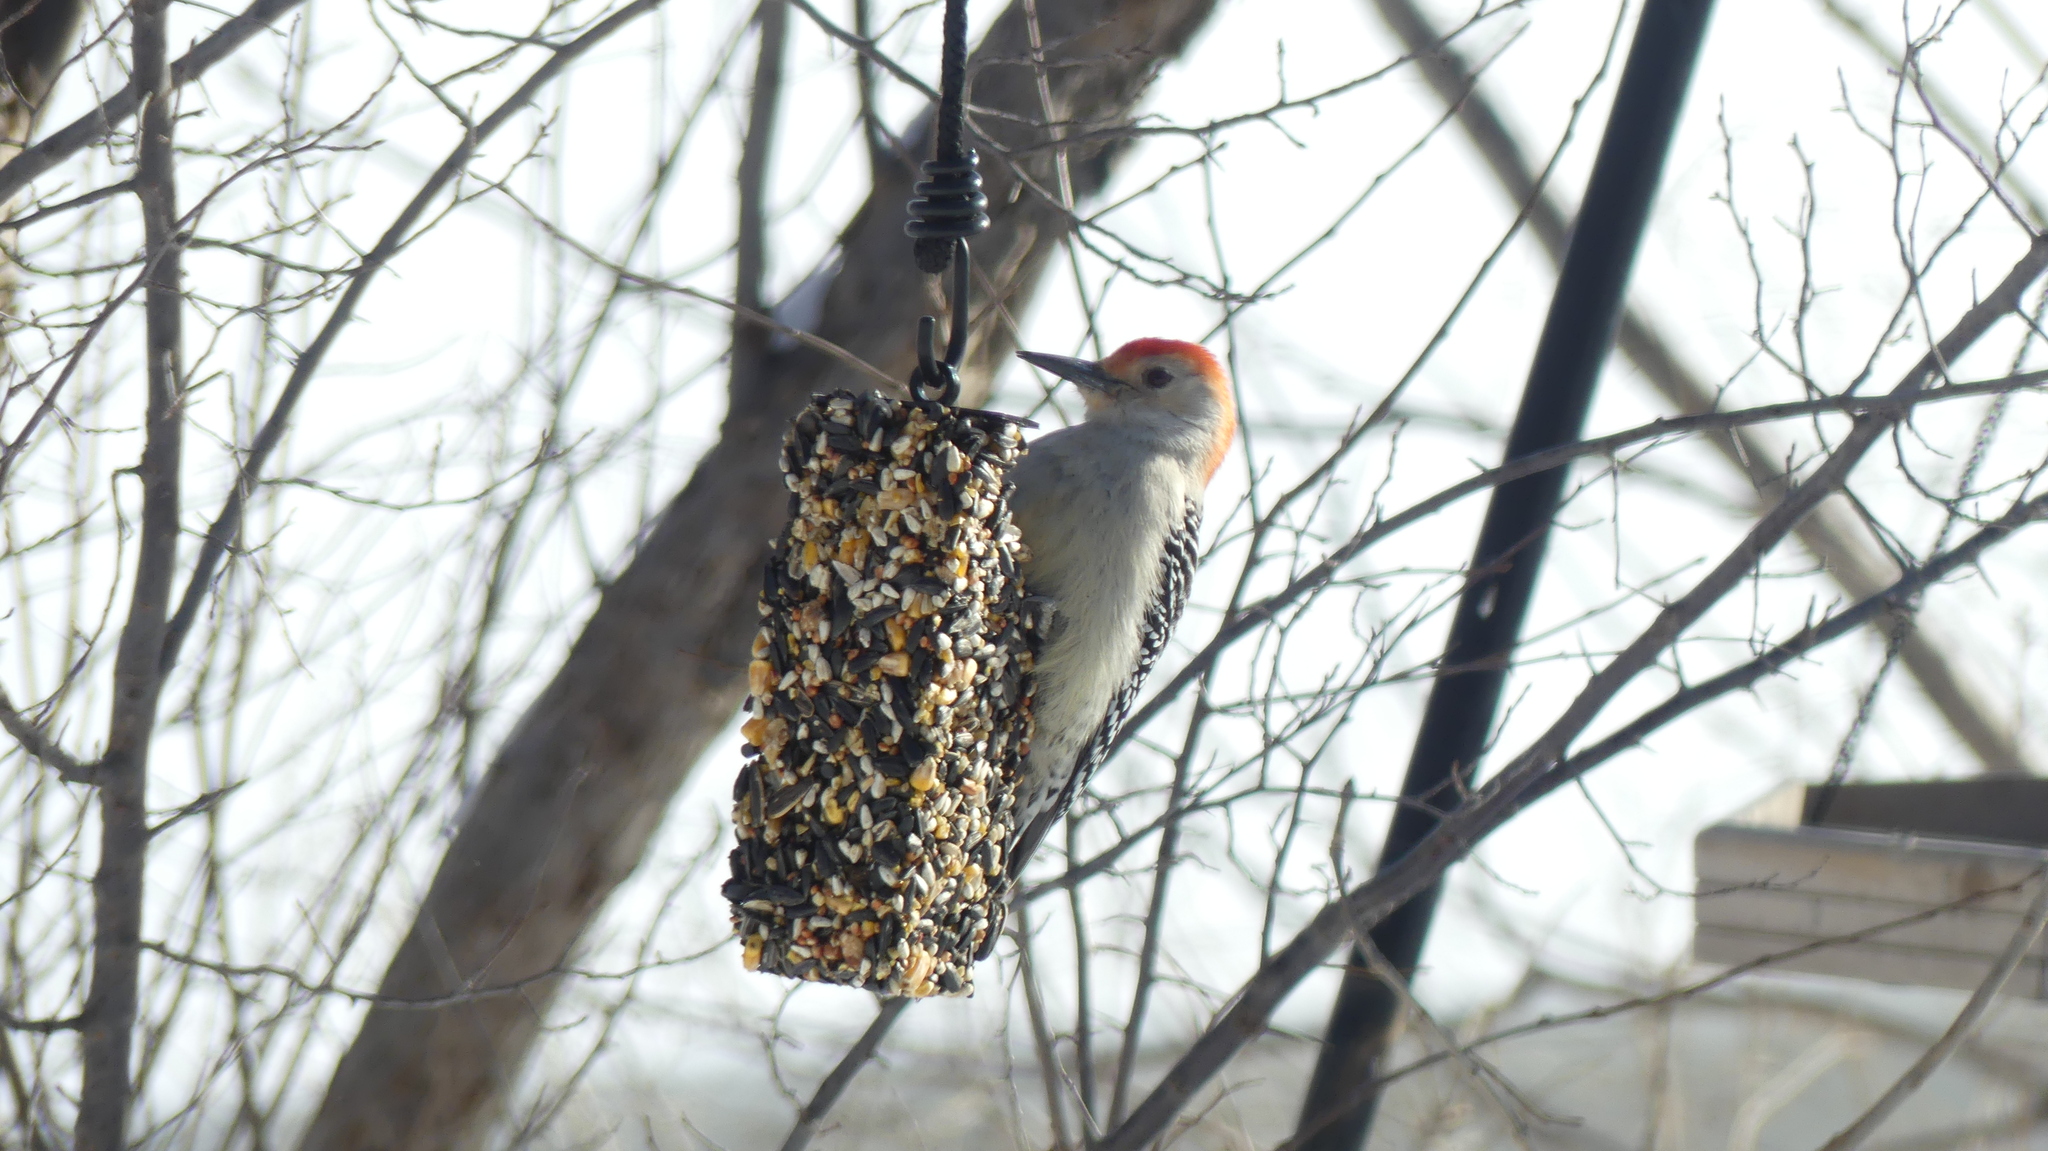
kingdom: Animalia
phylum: Chordata
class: Aves
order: Piciformes
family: Picidae
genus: Melanerpes
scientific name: Melanerpes carolinus
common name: Red-bellied woodpecker
